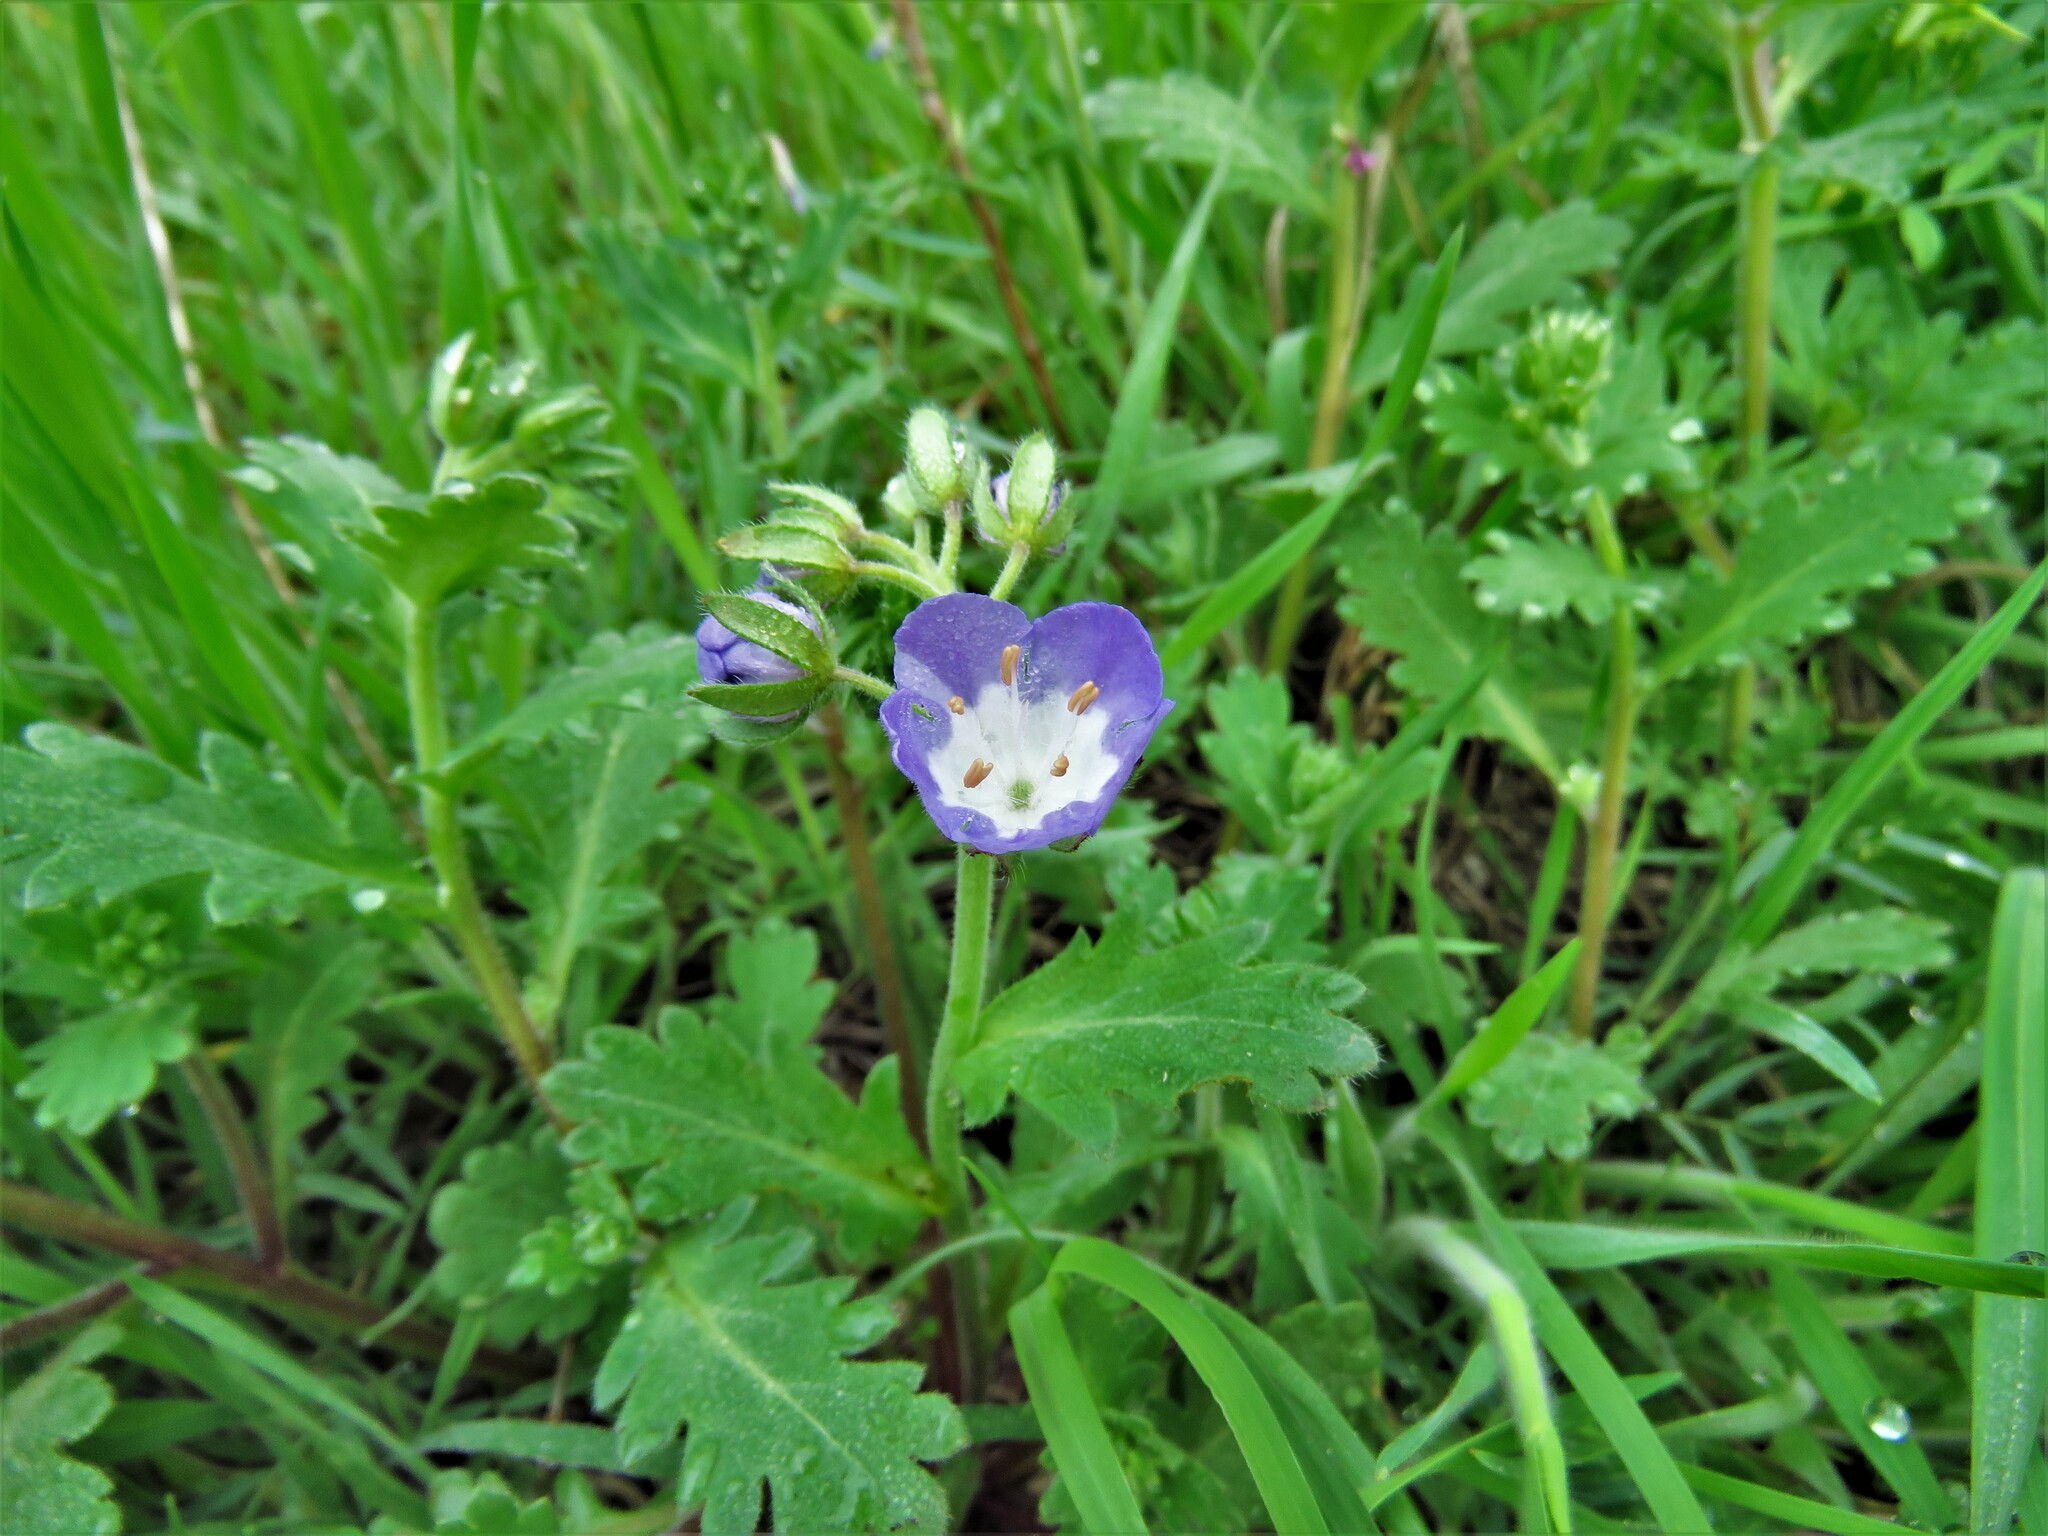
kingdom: Plantae
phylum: Tracheophyta
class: Magnoliopsida
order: Boraginales
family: Hydrophyllaceae
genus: Phacelia
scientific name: Phacelia patuliflora
